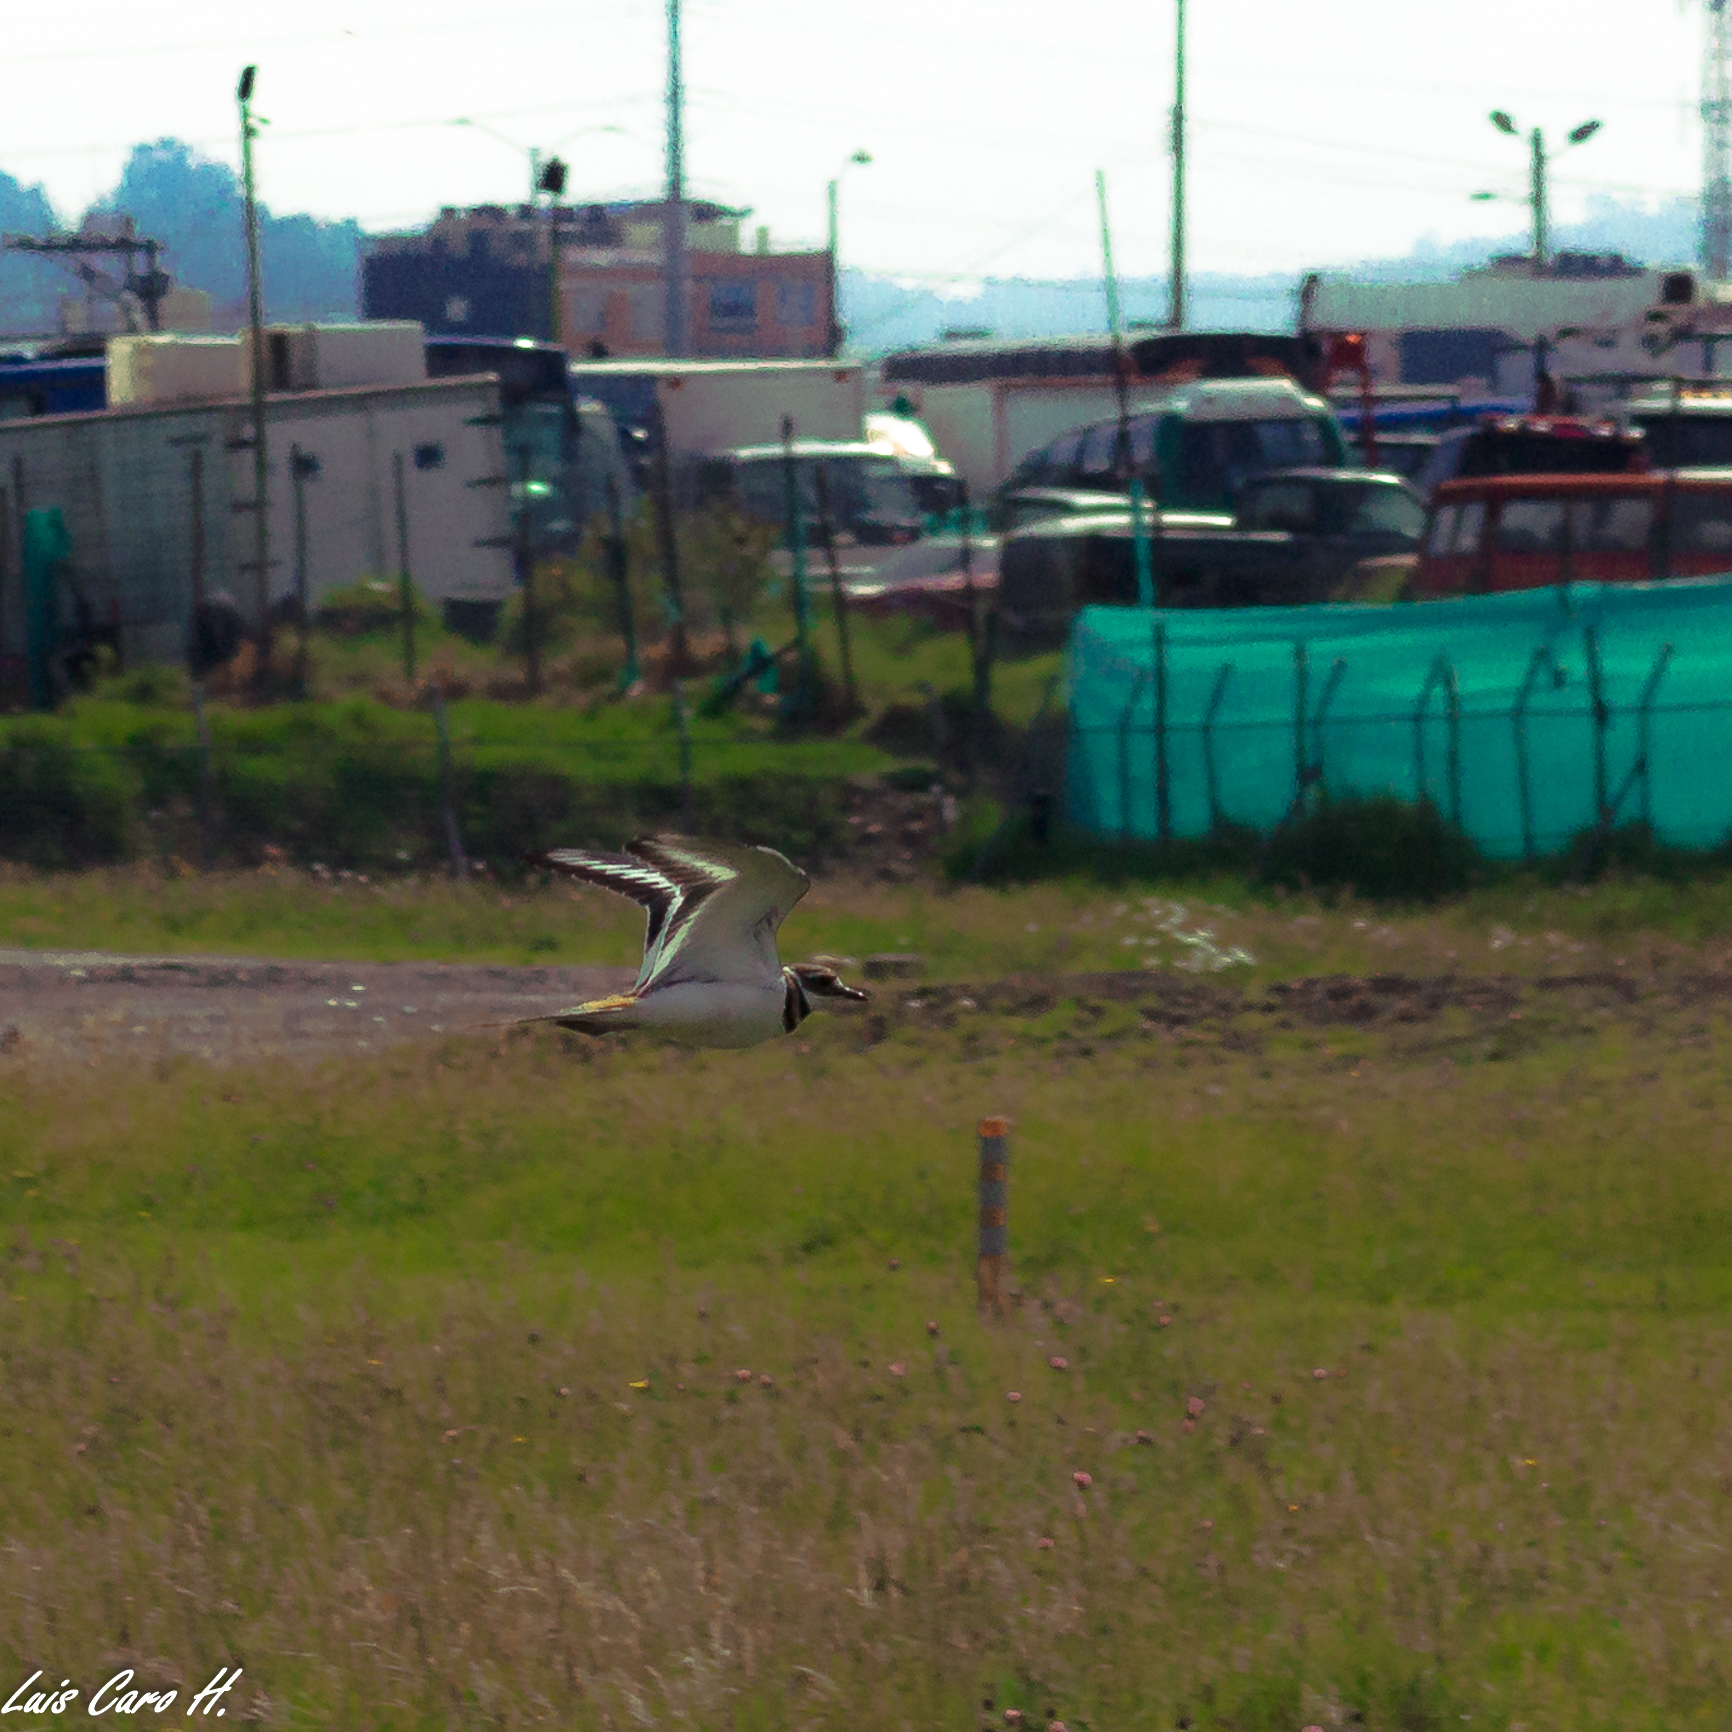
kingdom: Animalia
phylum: Chordata
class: Aves
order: Charadriiformes
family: Charadriidae
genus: Charadrius
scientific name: Charadrius vociferus
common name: Killdeer
